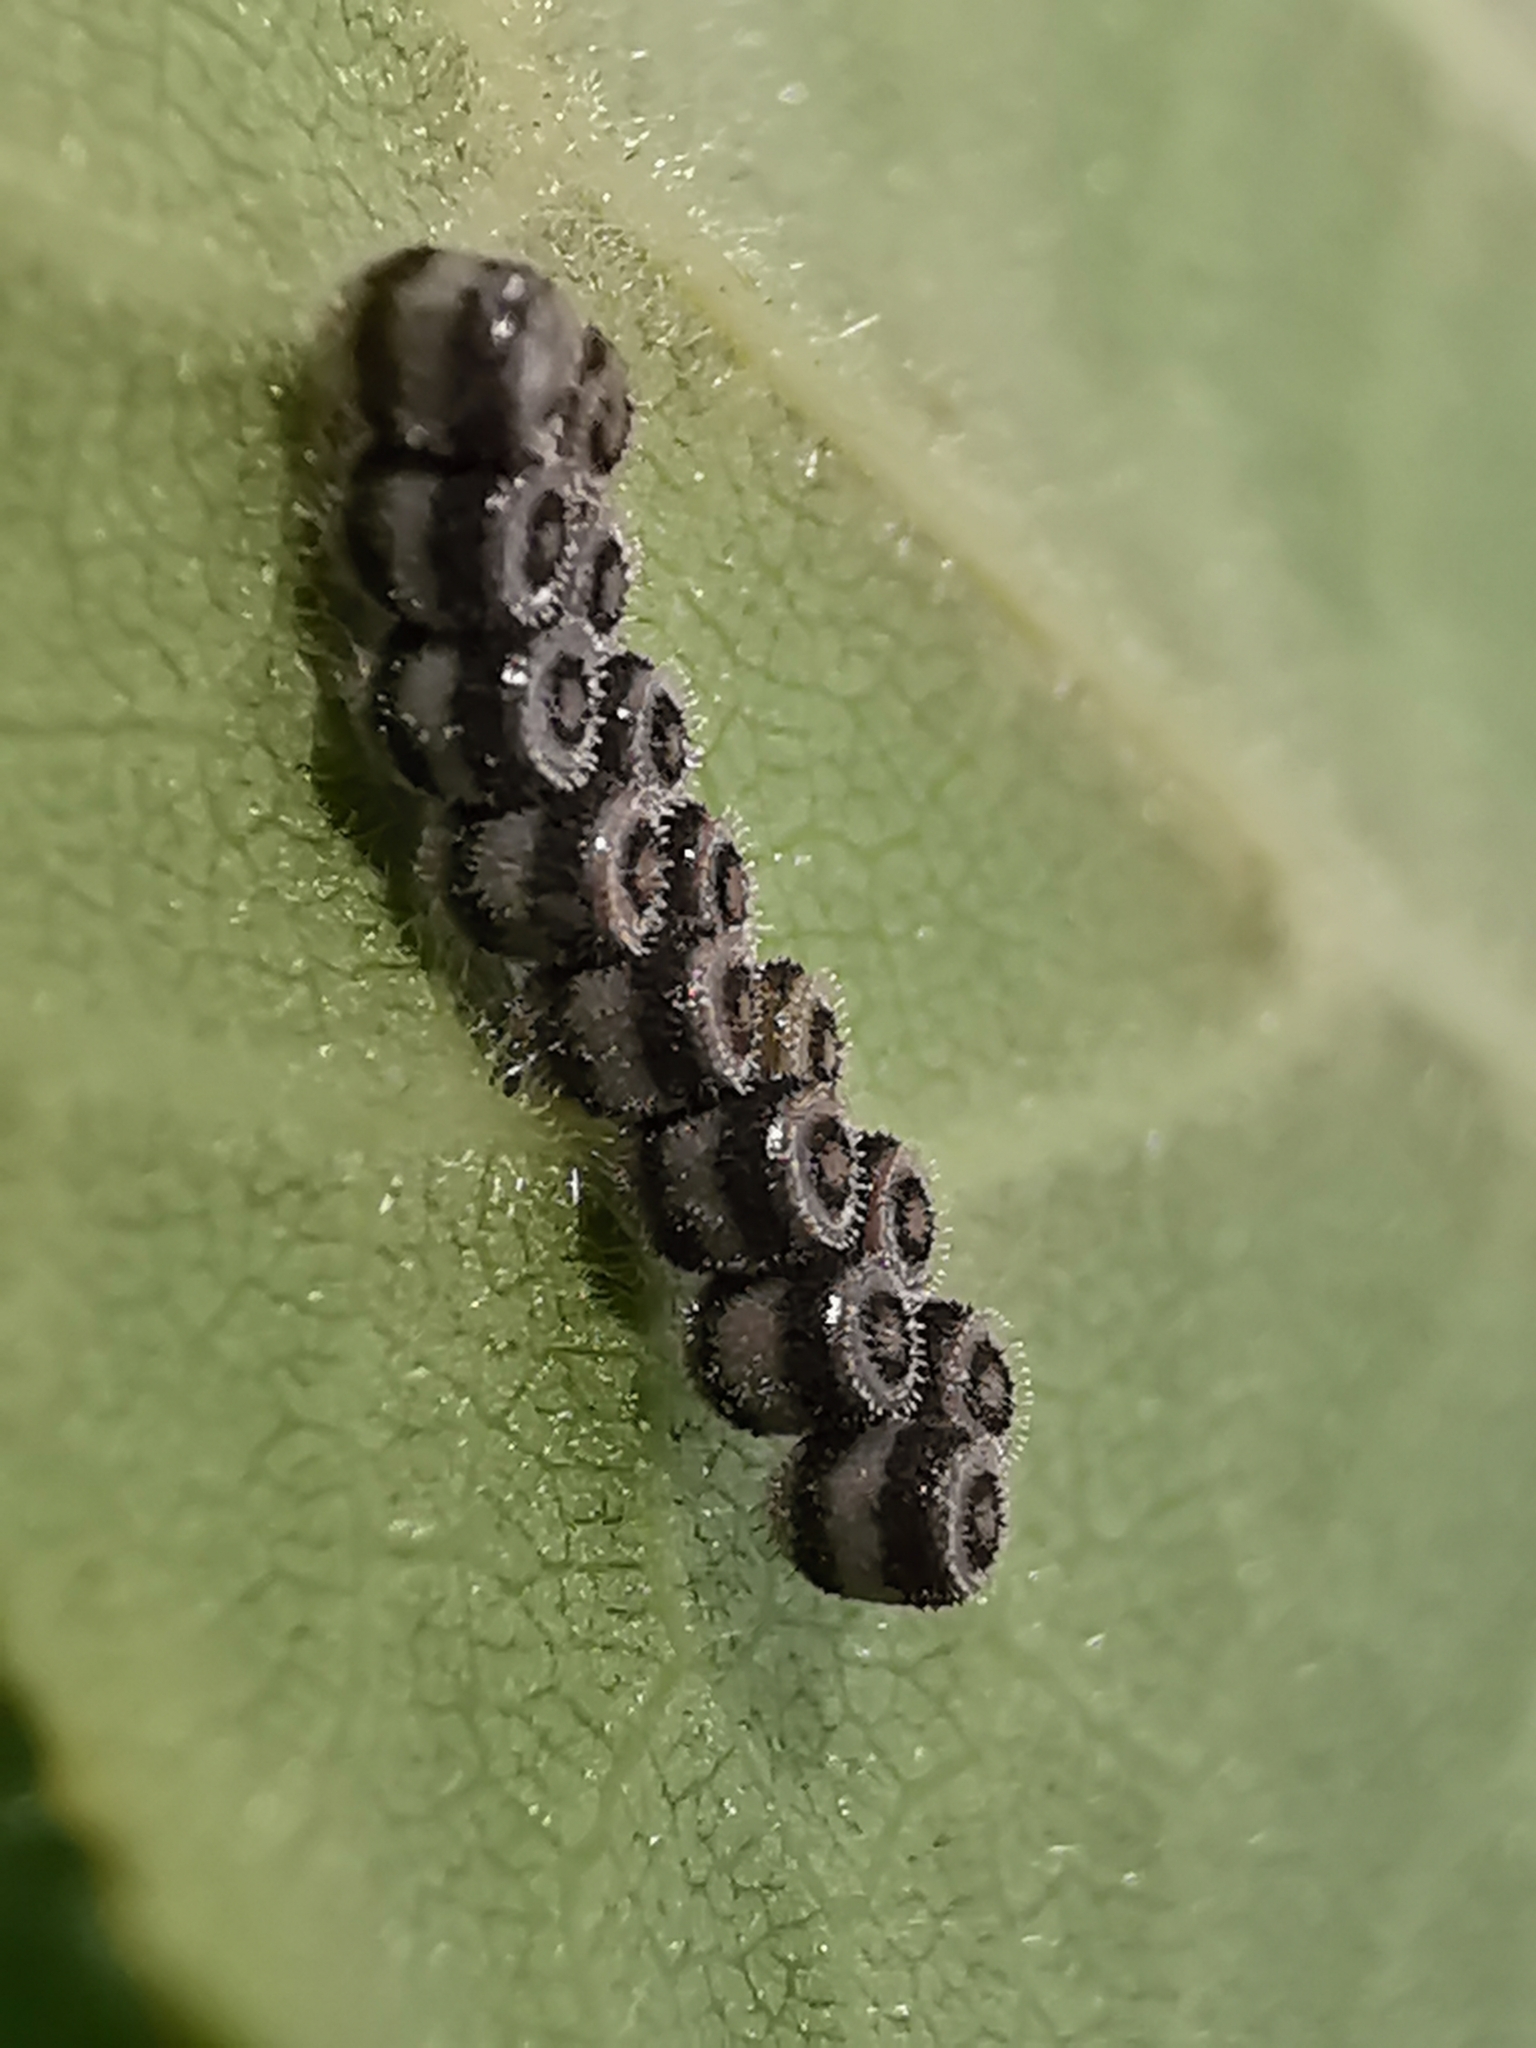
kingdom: Animalia
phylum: Arthropoda
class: Insecta
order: Hemiptera
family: Pentatomidae
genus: Piezodorus
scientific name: Piezodorus lituratus
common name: Stink bug
